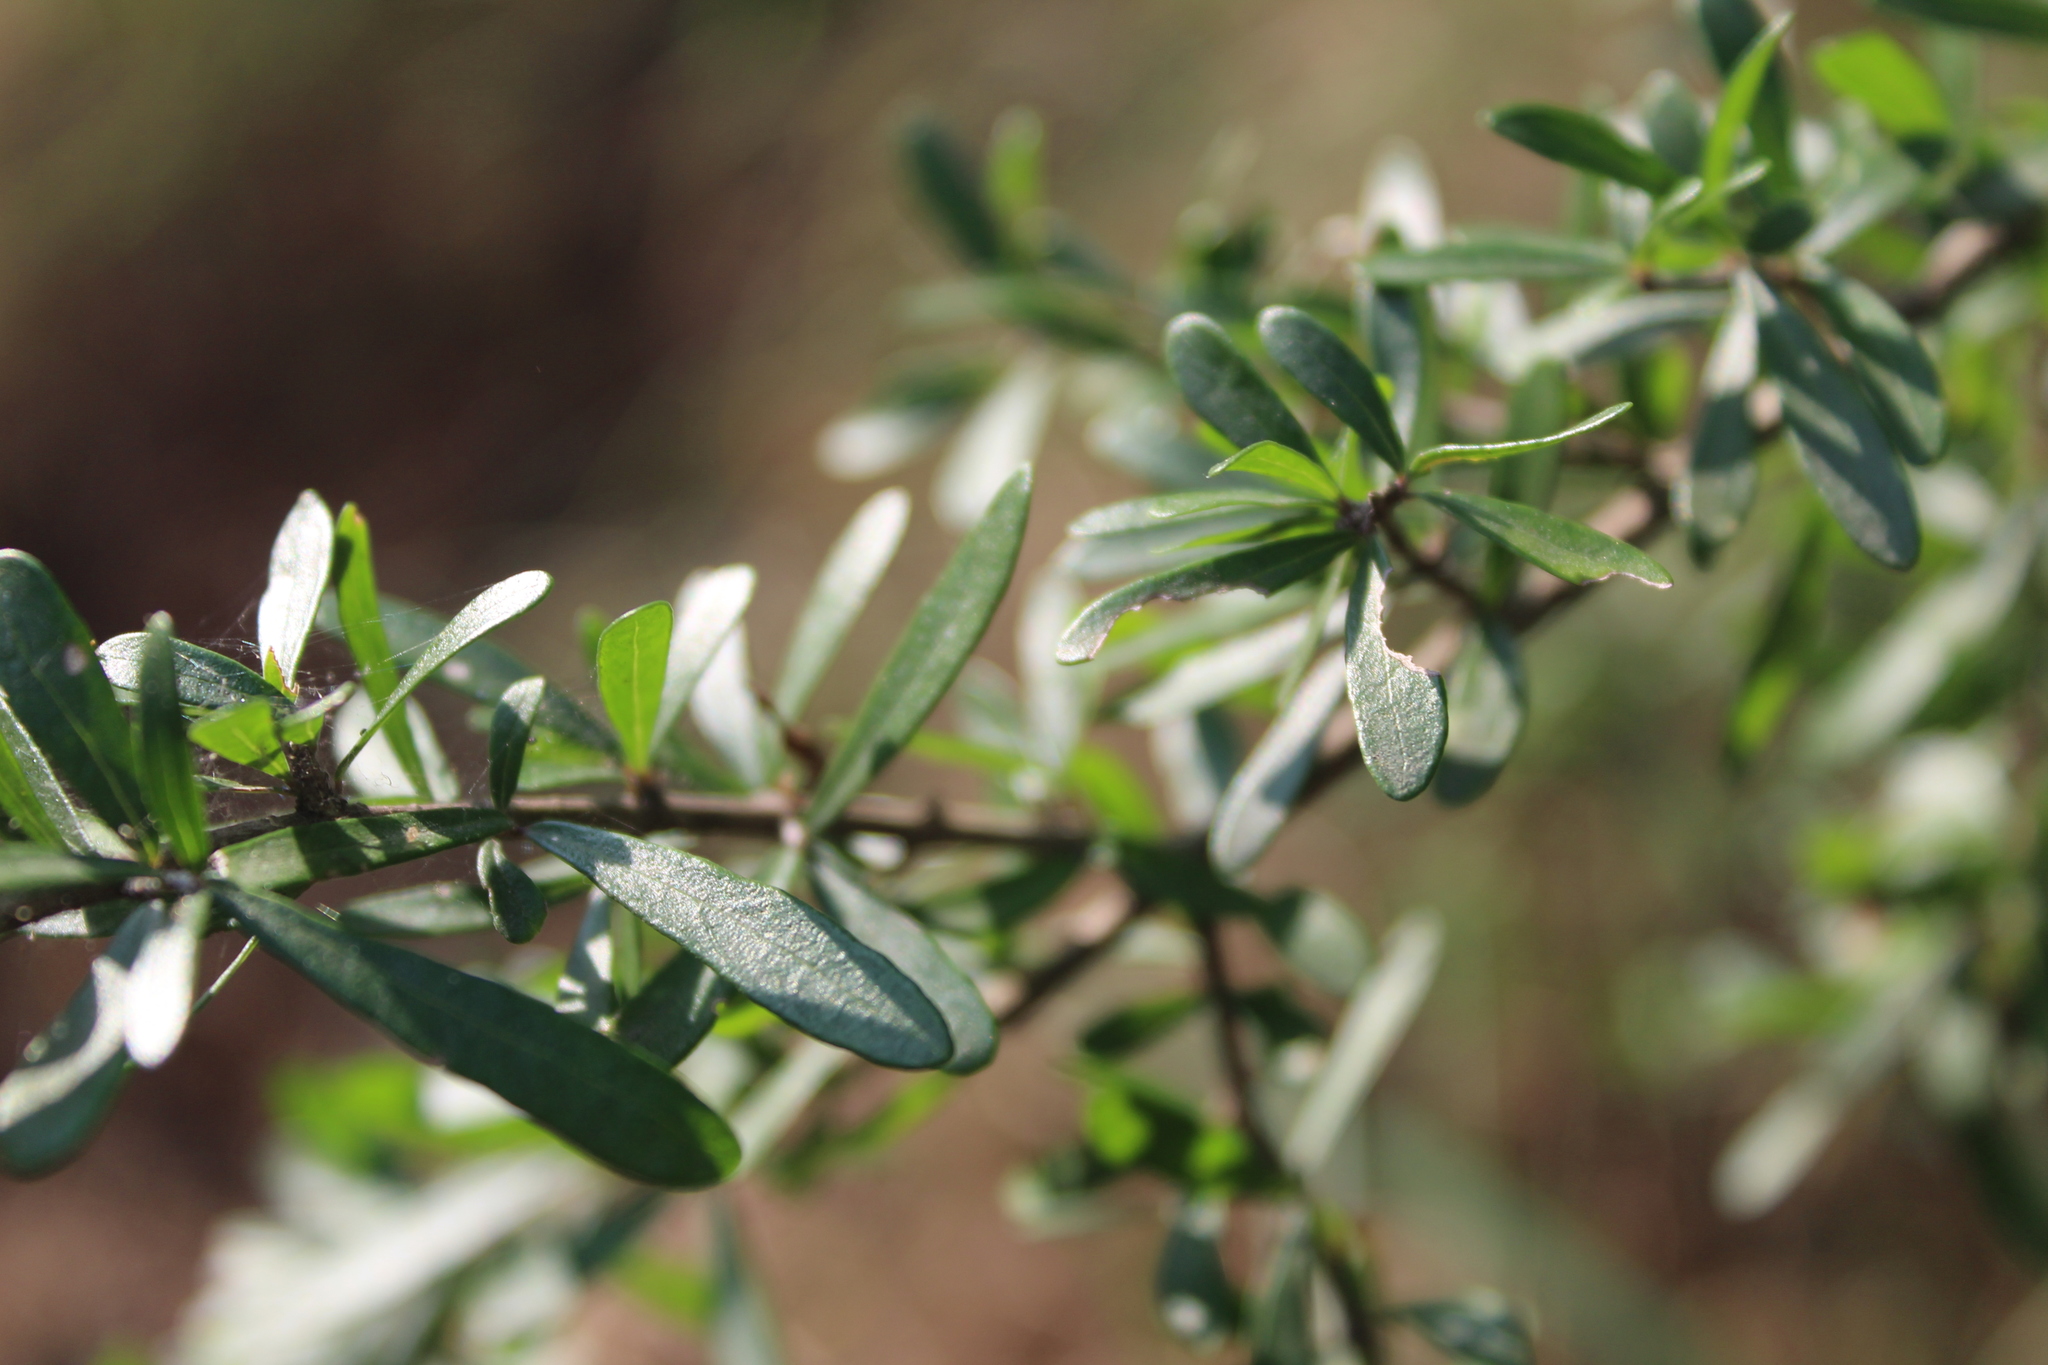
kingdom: Plantae
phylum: Tracheophyta
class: Magnoliopsida
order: Lamiales
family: Oleaceae
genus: Forestiera
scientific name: Forestiera angustifolia
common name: Elbowbush
